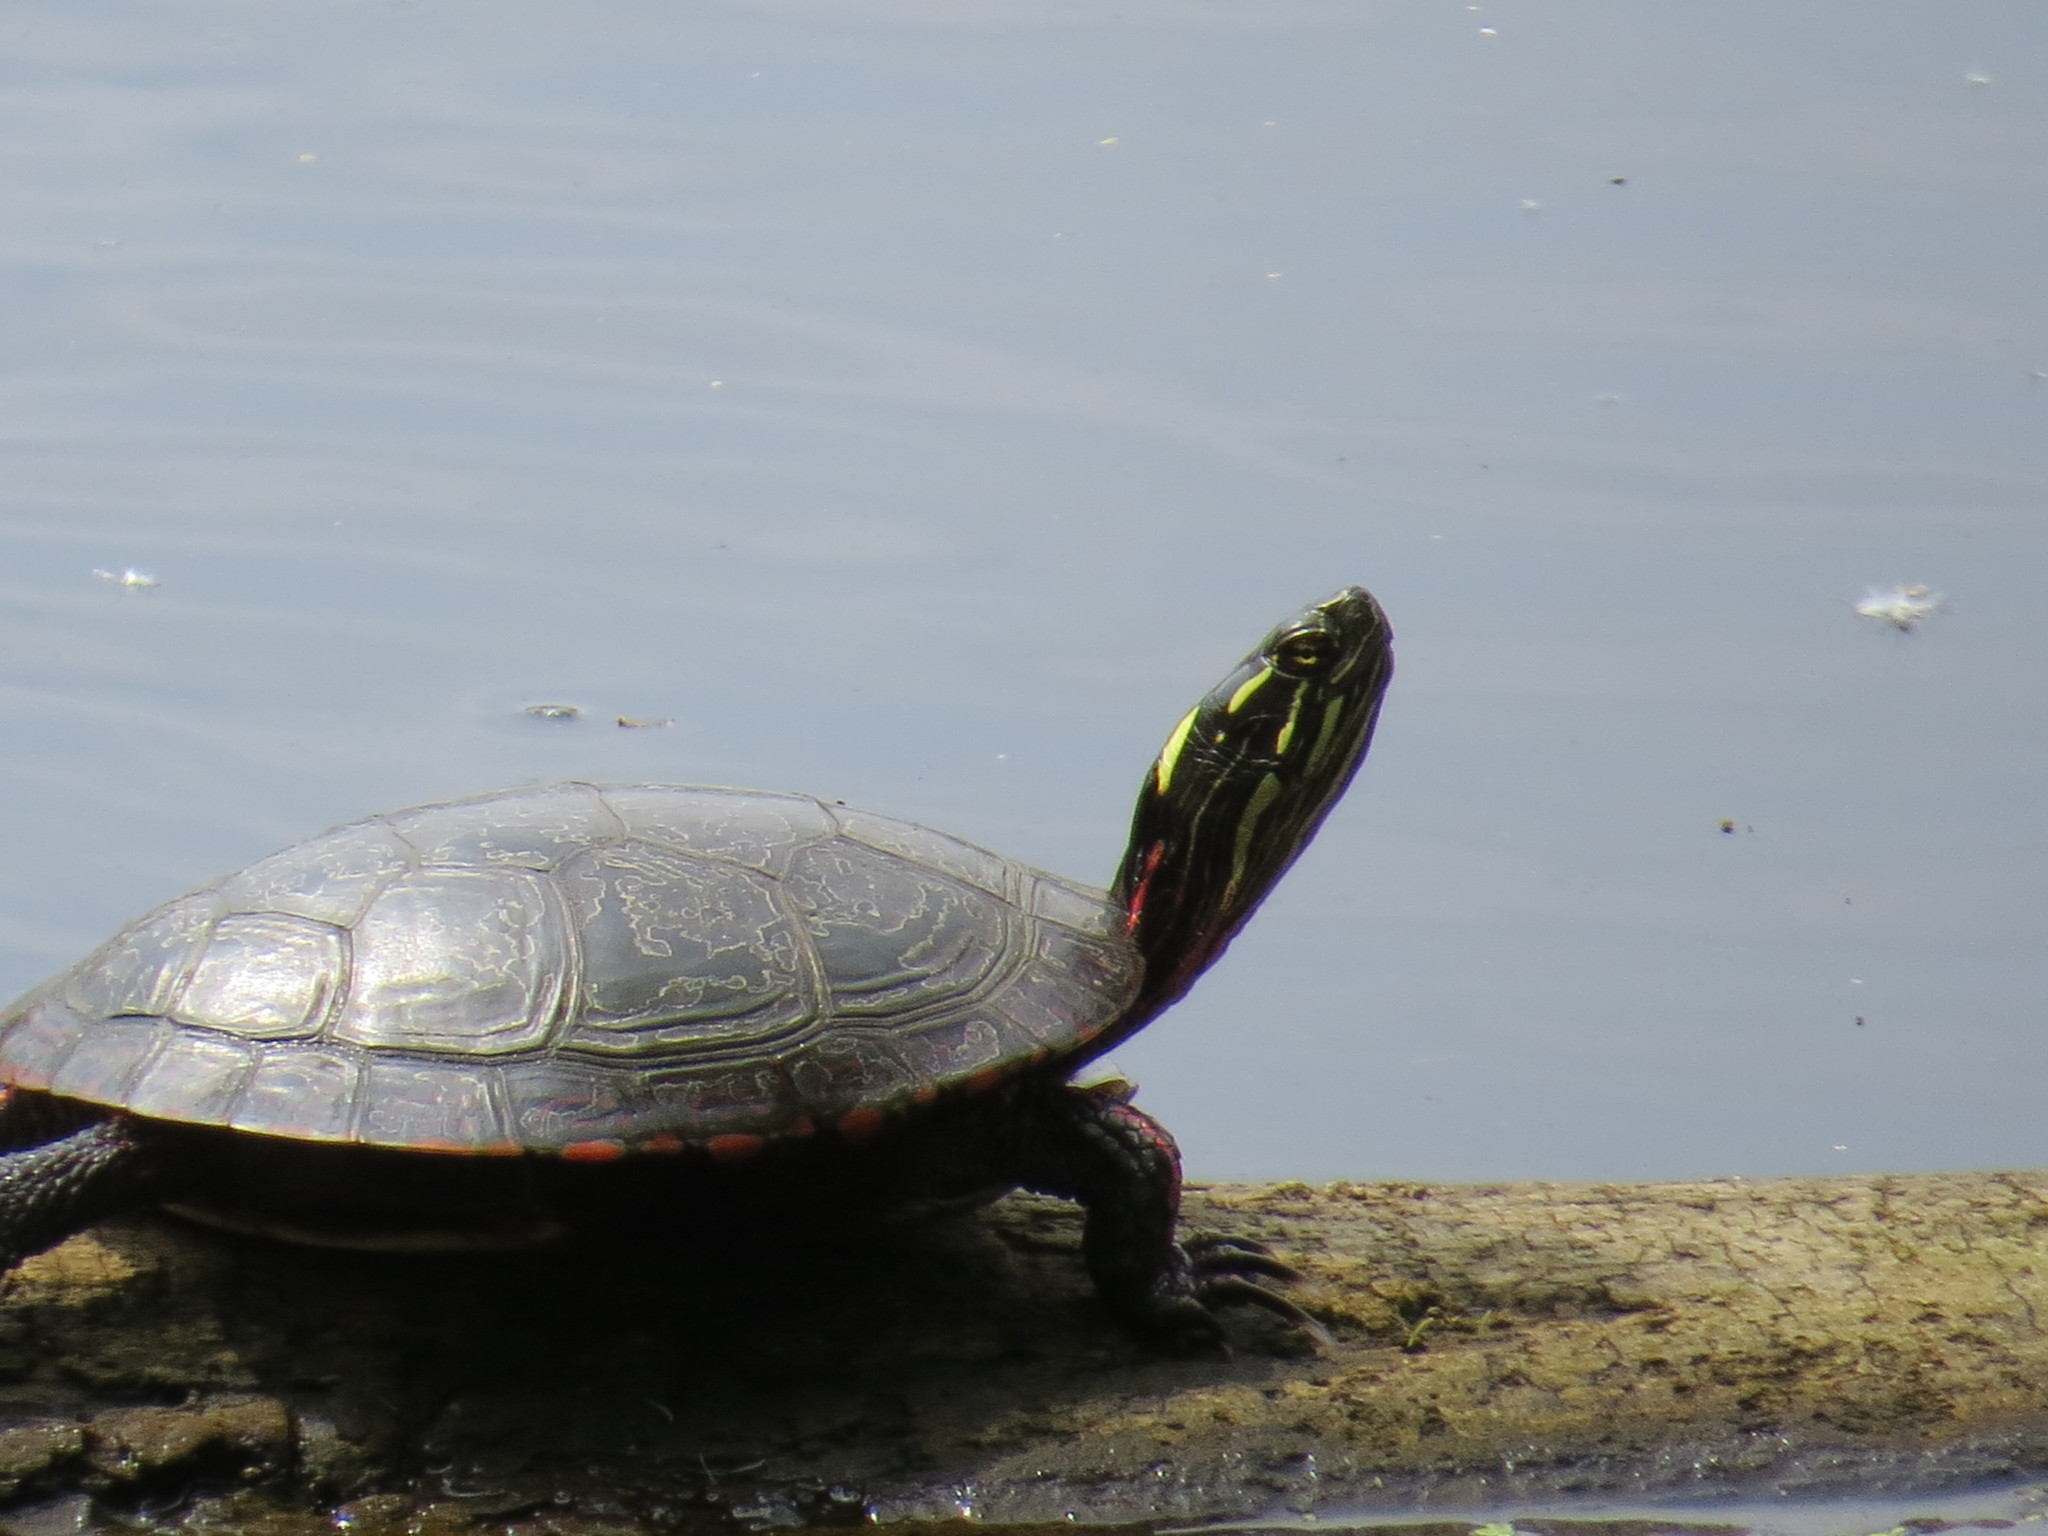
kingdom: Animalia
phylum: Chordata
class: Testudines
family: Emydidae
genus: Chrysemys
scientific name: Chrysemys picta
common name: Painted turtle
